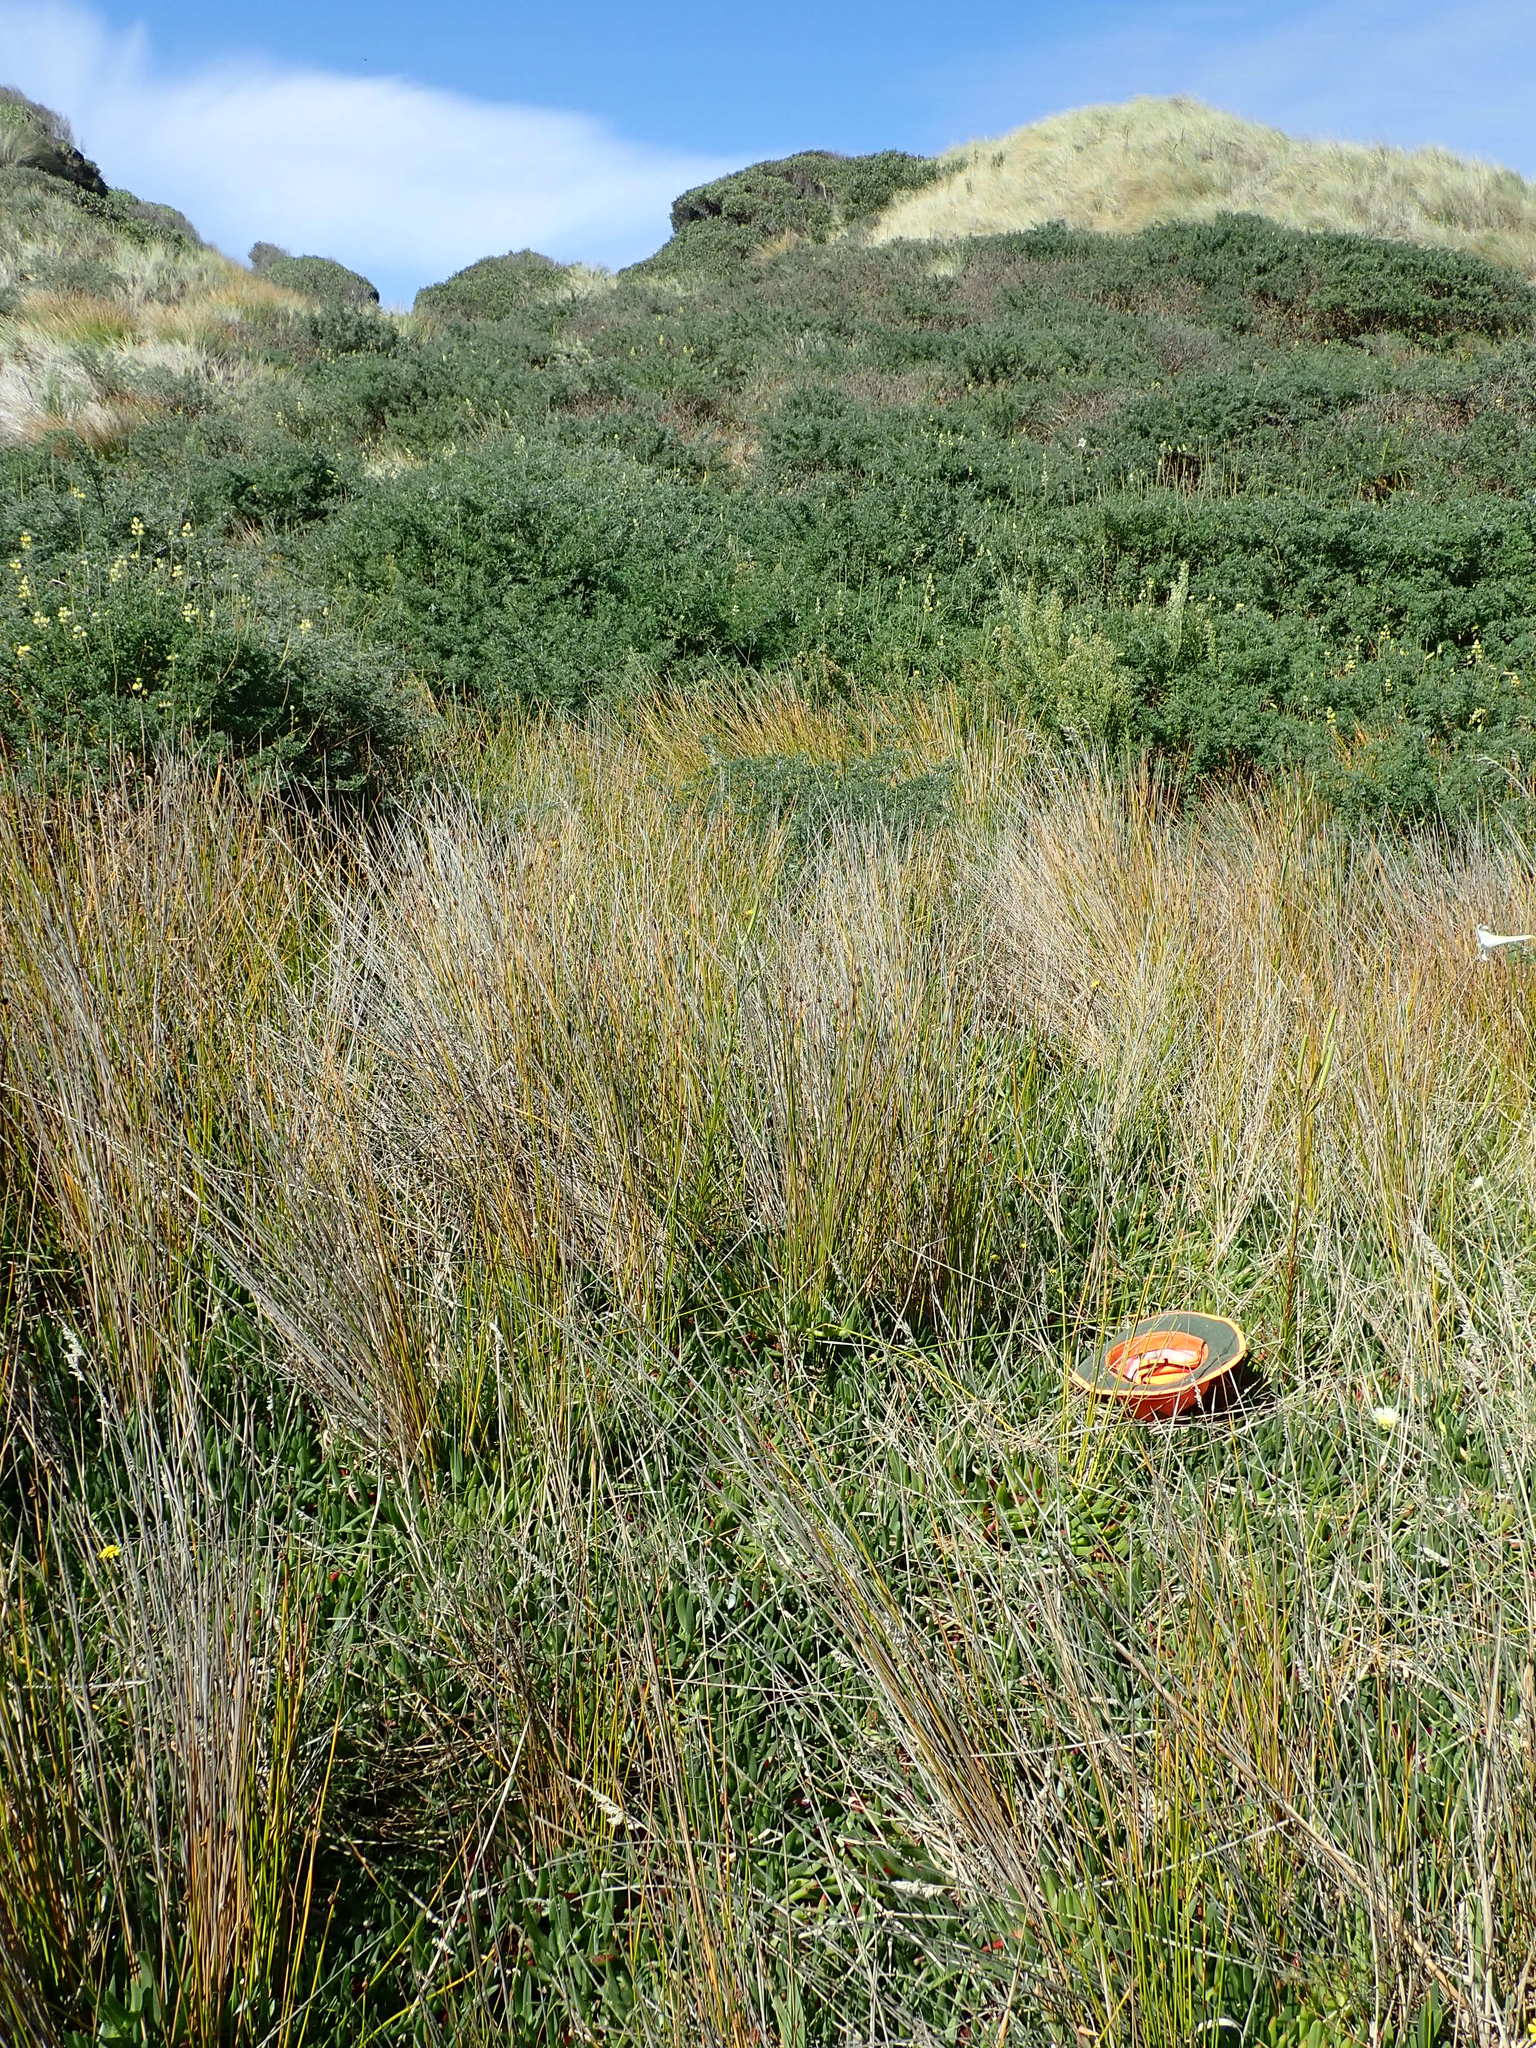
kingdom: Plantae
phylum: Tracheophyta
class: Magnoliopsida
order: Caryophyllales
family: Aizoaceae
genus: Carpobrotus
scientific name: Carpobrotus edulis
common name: Hottentot-fig
